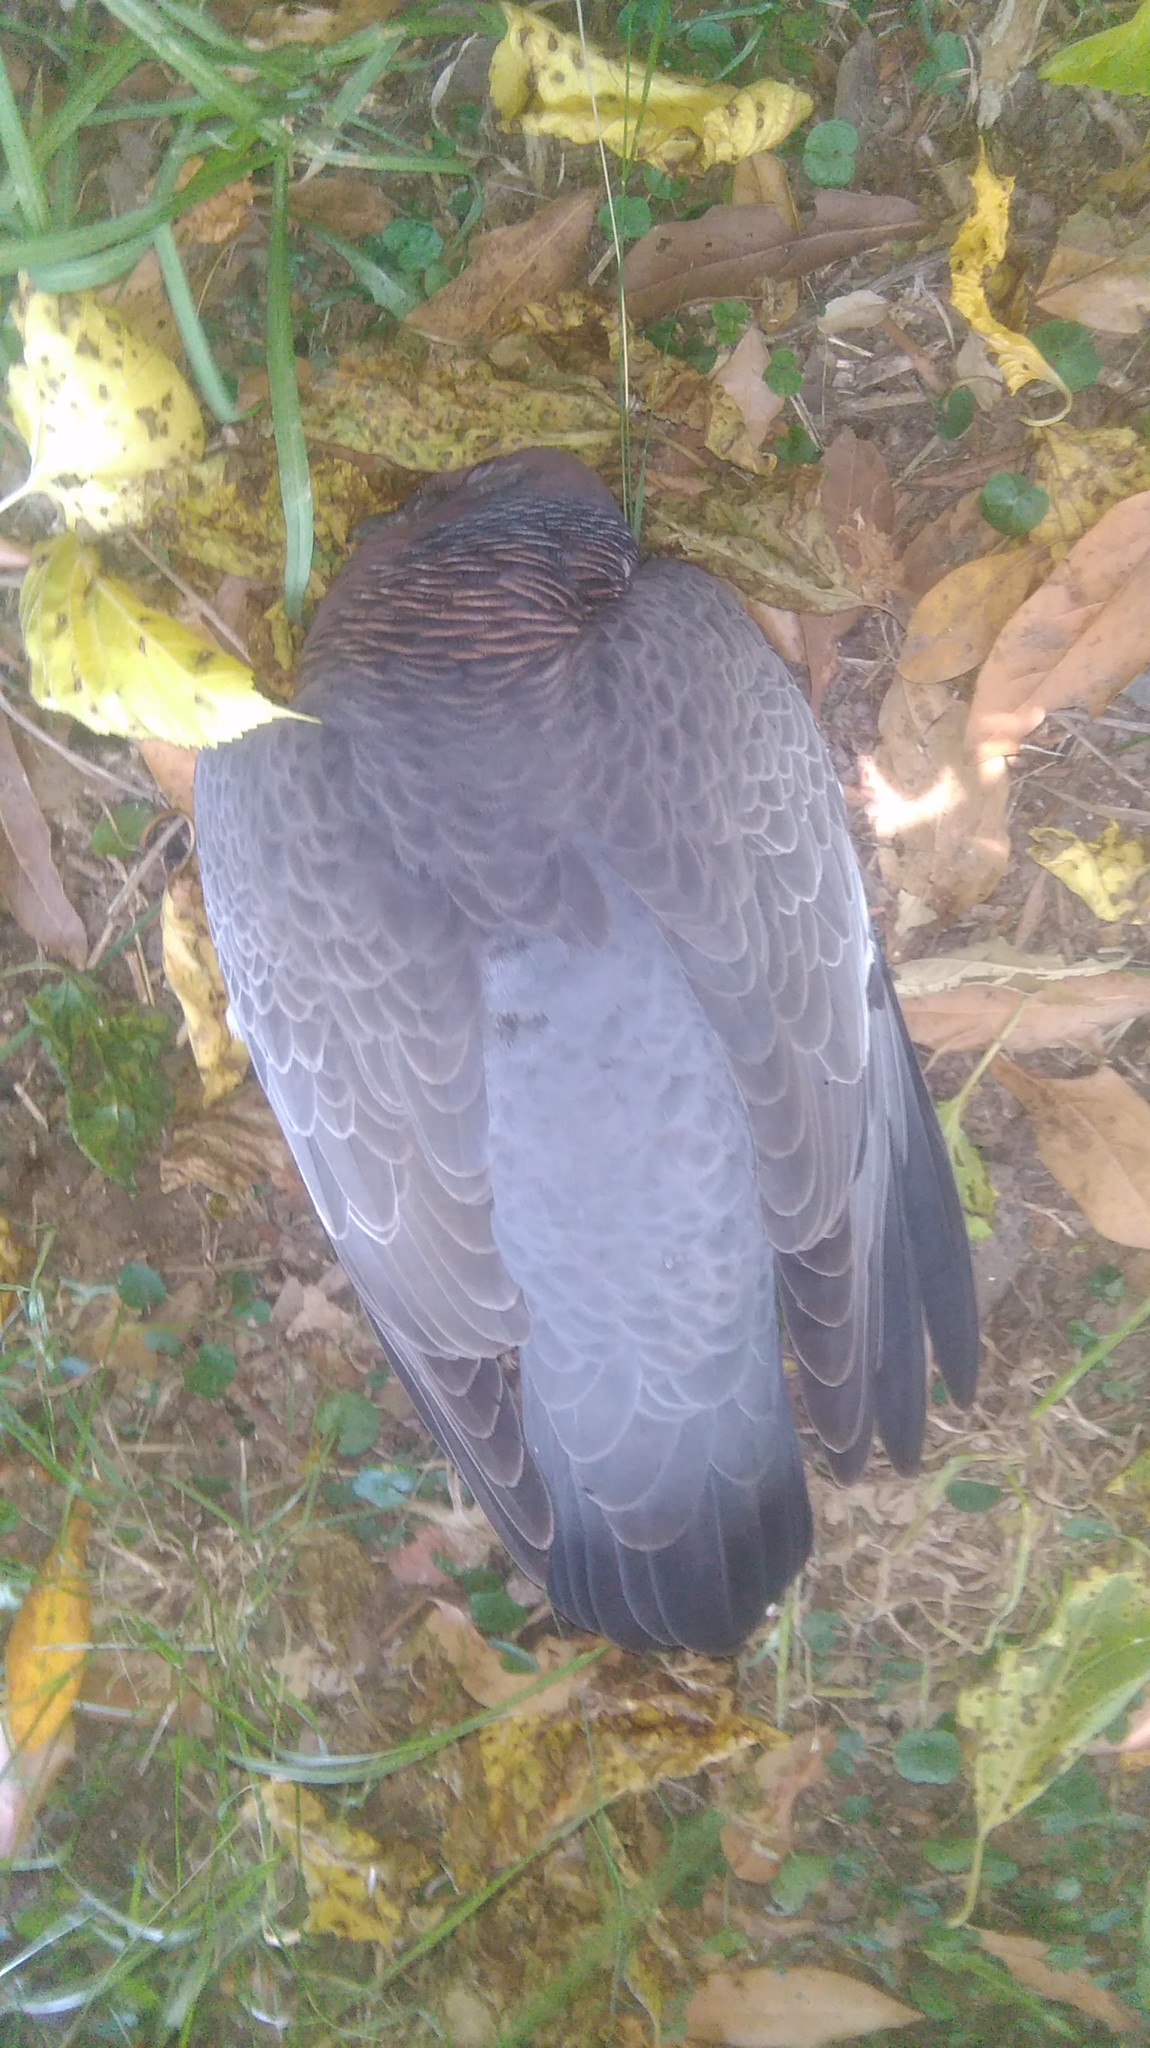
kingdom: Animalia
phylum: Chordata
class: Aves
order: Columbiformes
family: Columbidae
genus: Patagioenas
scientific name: Patagioenas picazuro
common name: Picazuro pigeon
